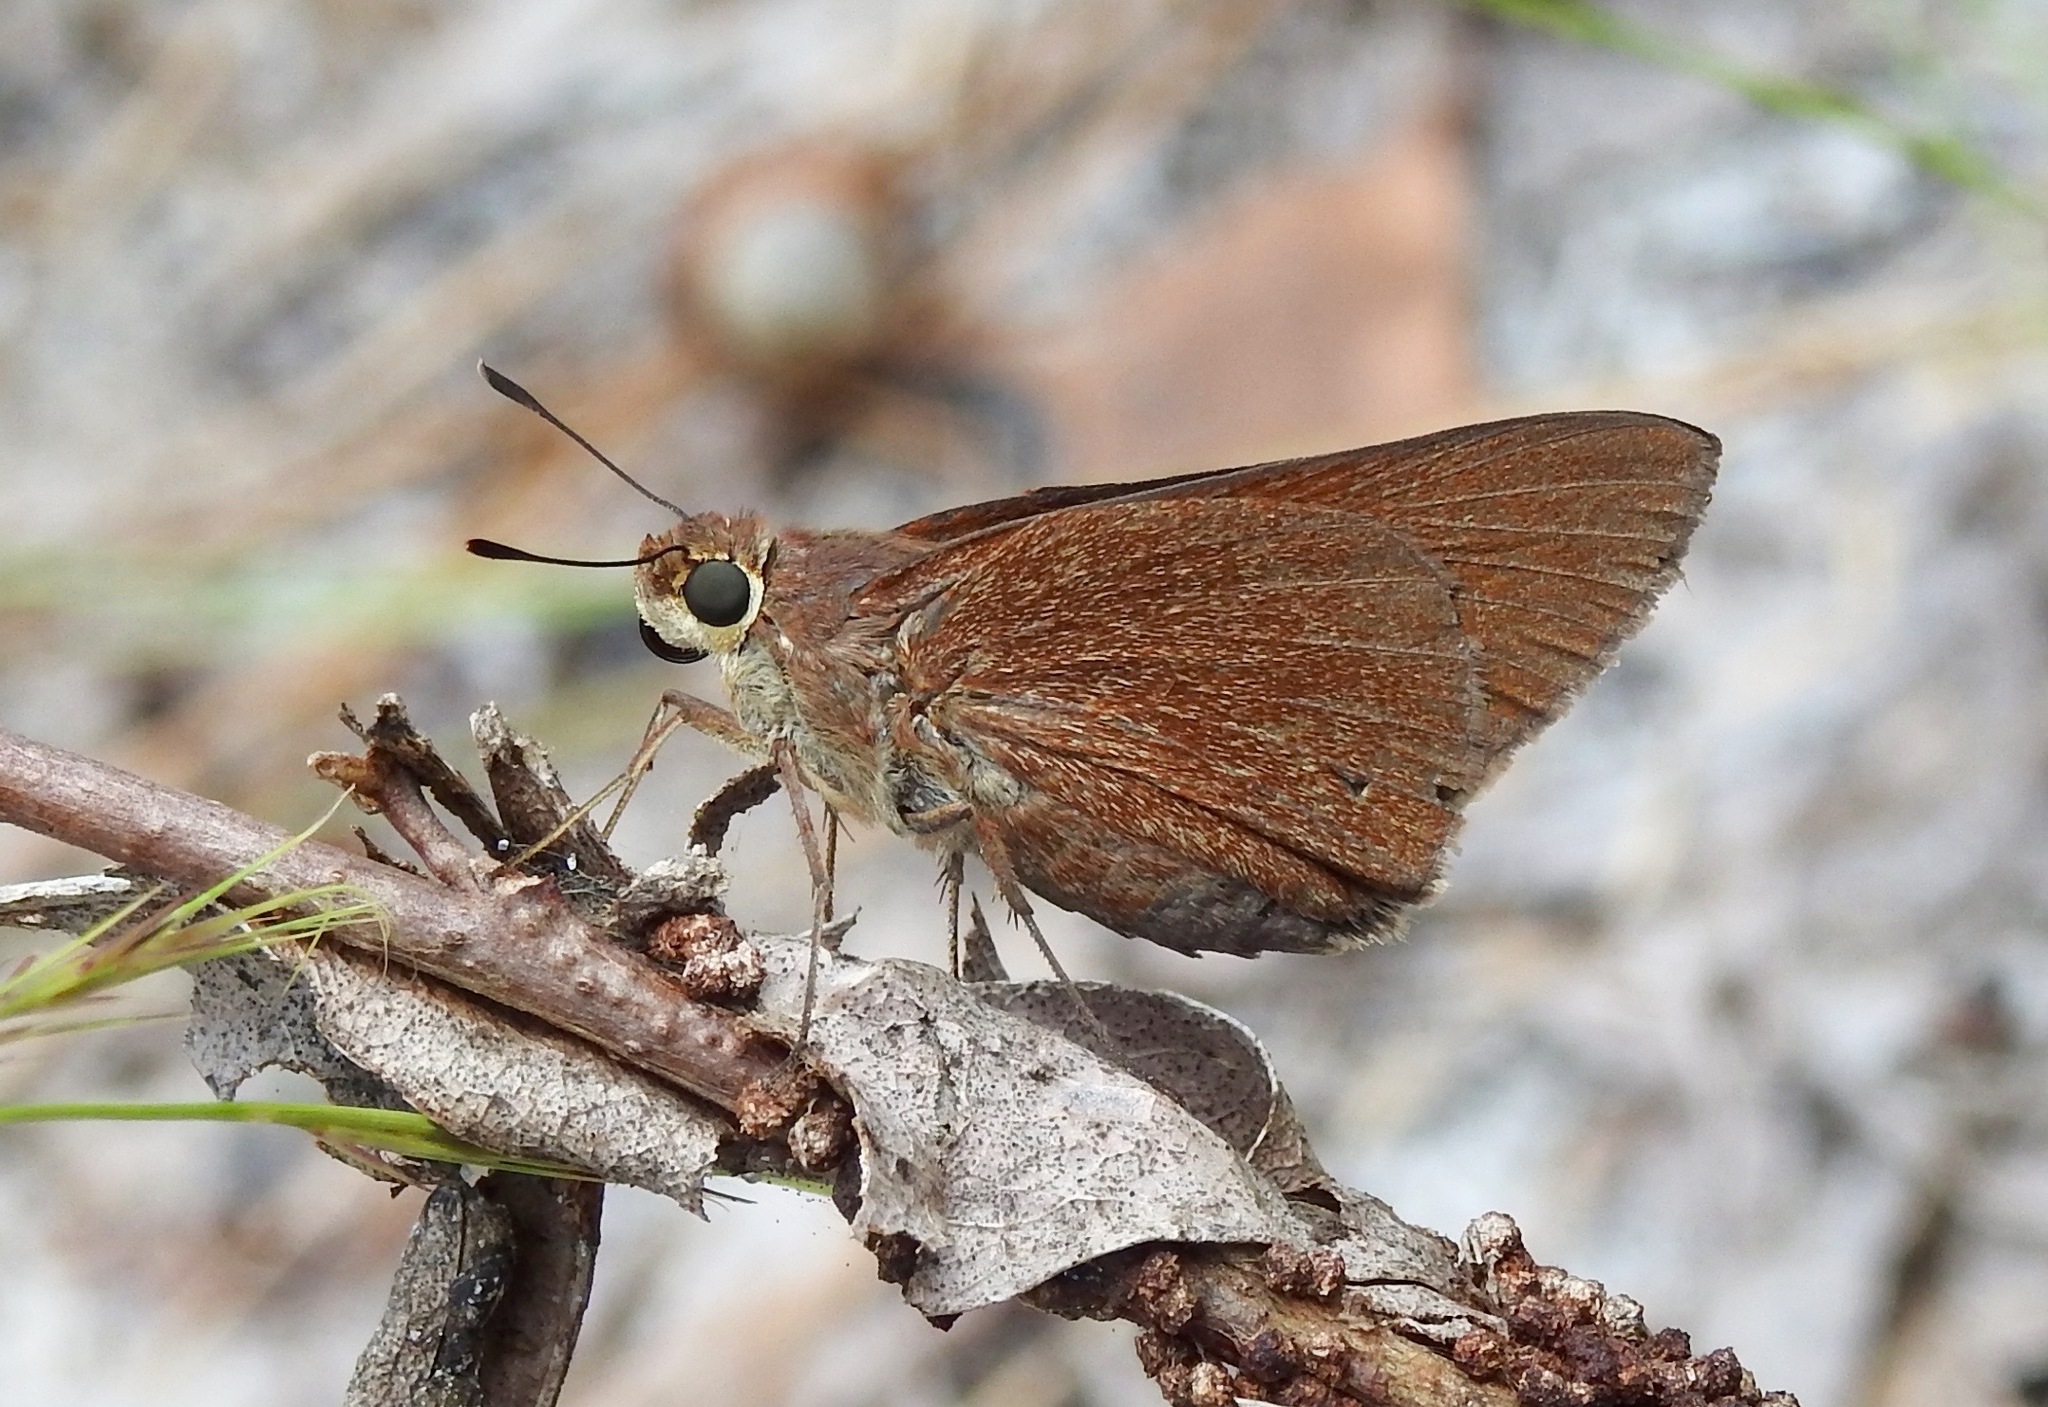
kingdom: Animalia
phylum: Arthropoda
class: Insecta
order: Lepidoptera
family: Hesperiidae
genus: Asbolis
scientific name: Asbolis capucinus
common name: Monk skipper
